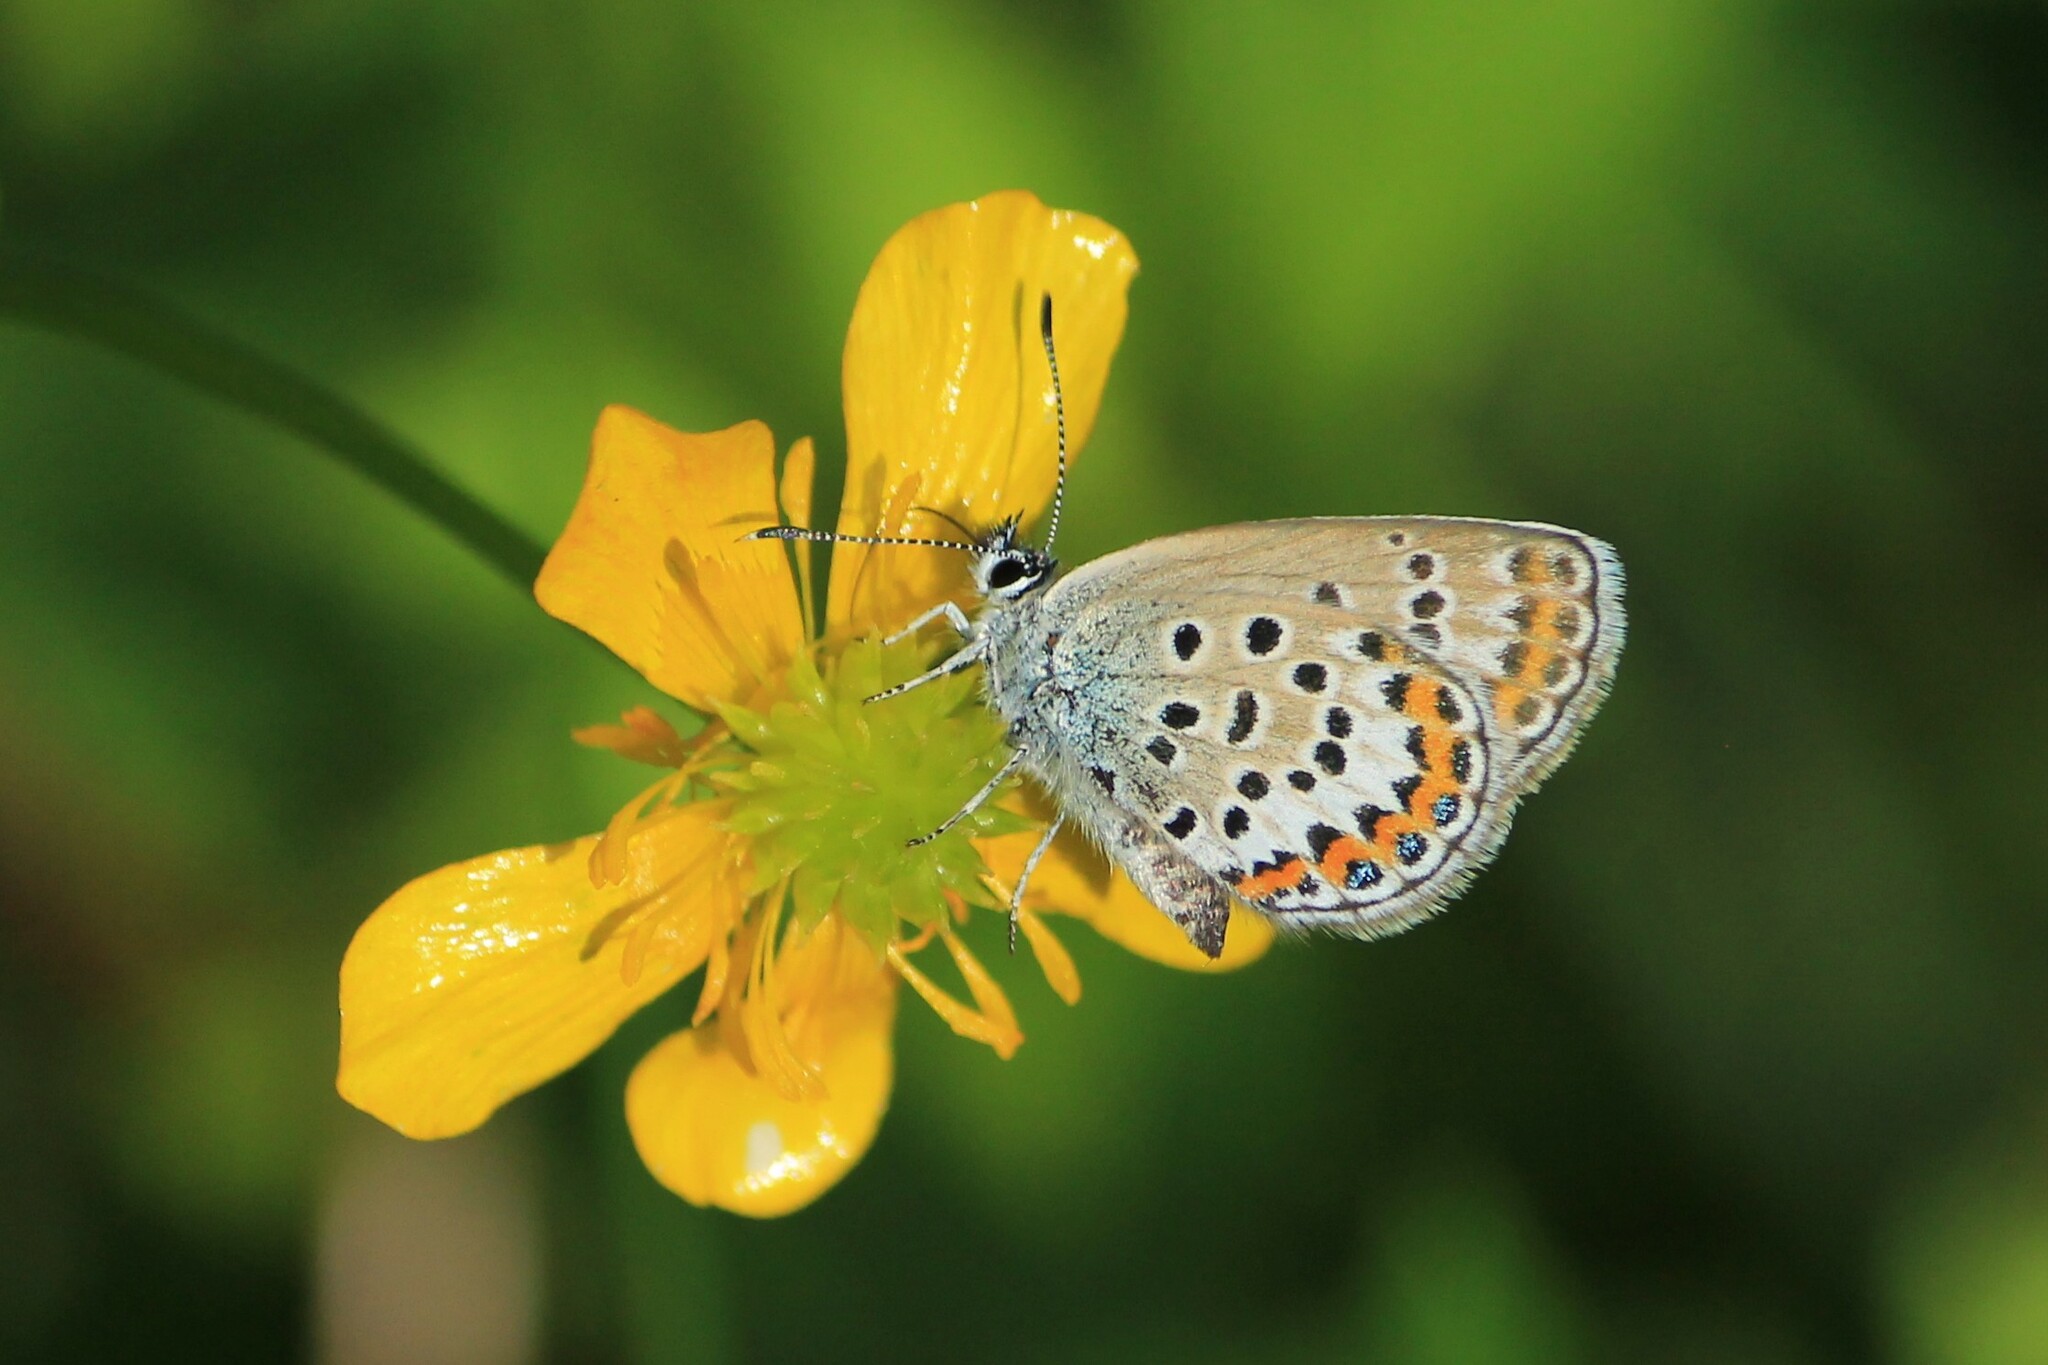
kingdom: Animalia
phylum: Arthropoda
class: Insecta
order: Lepidoptera
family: Lycaenidae
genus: Plebejus
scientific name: Plebejus argus
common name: Silver-studded blue
